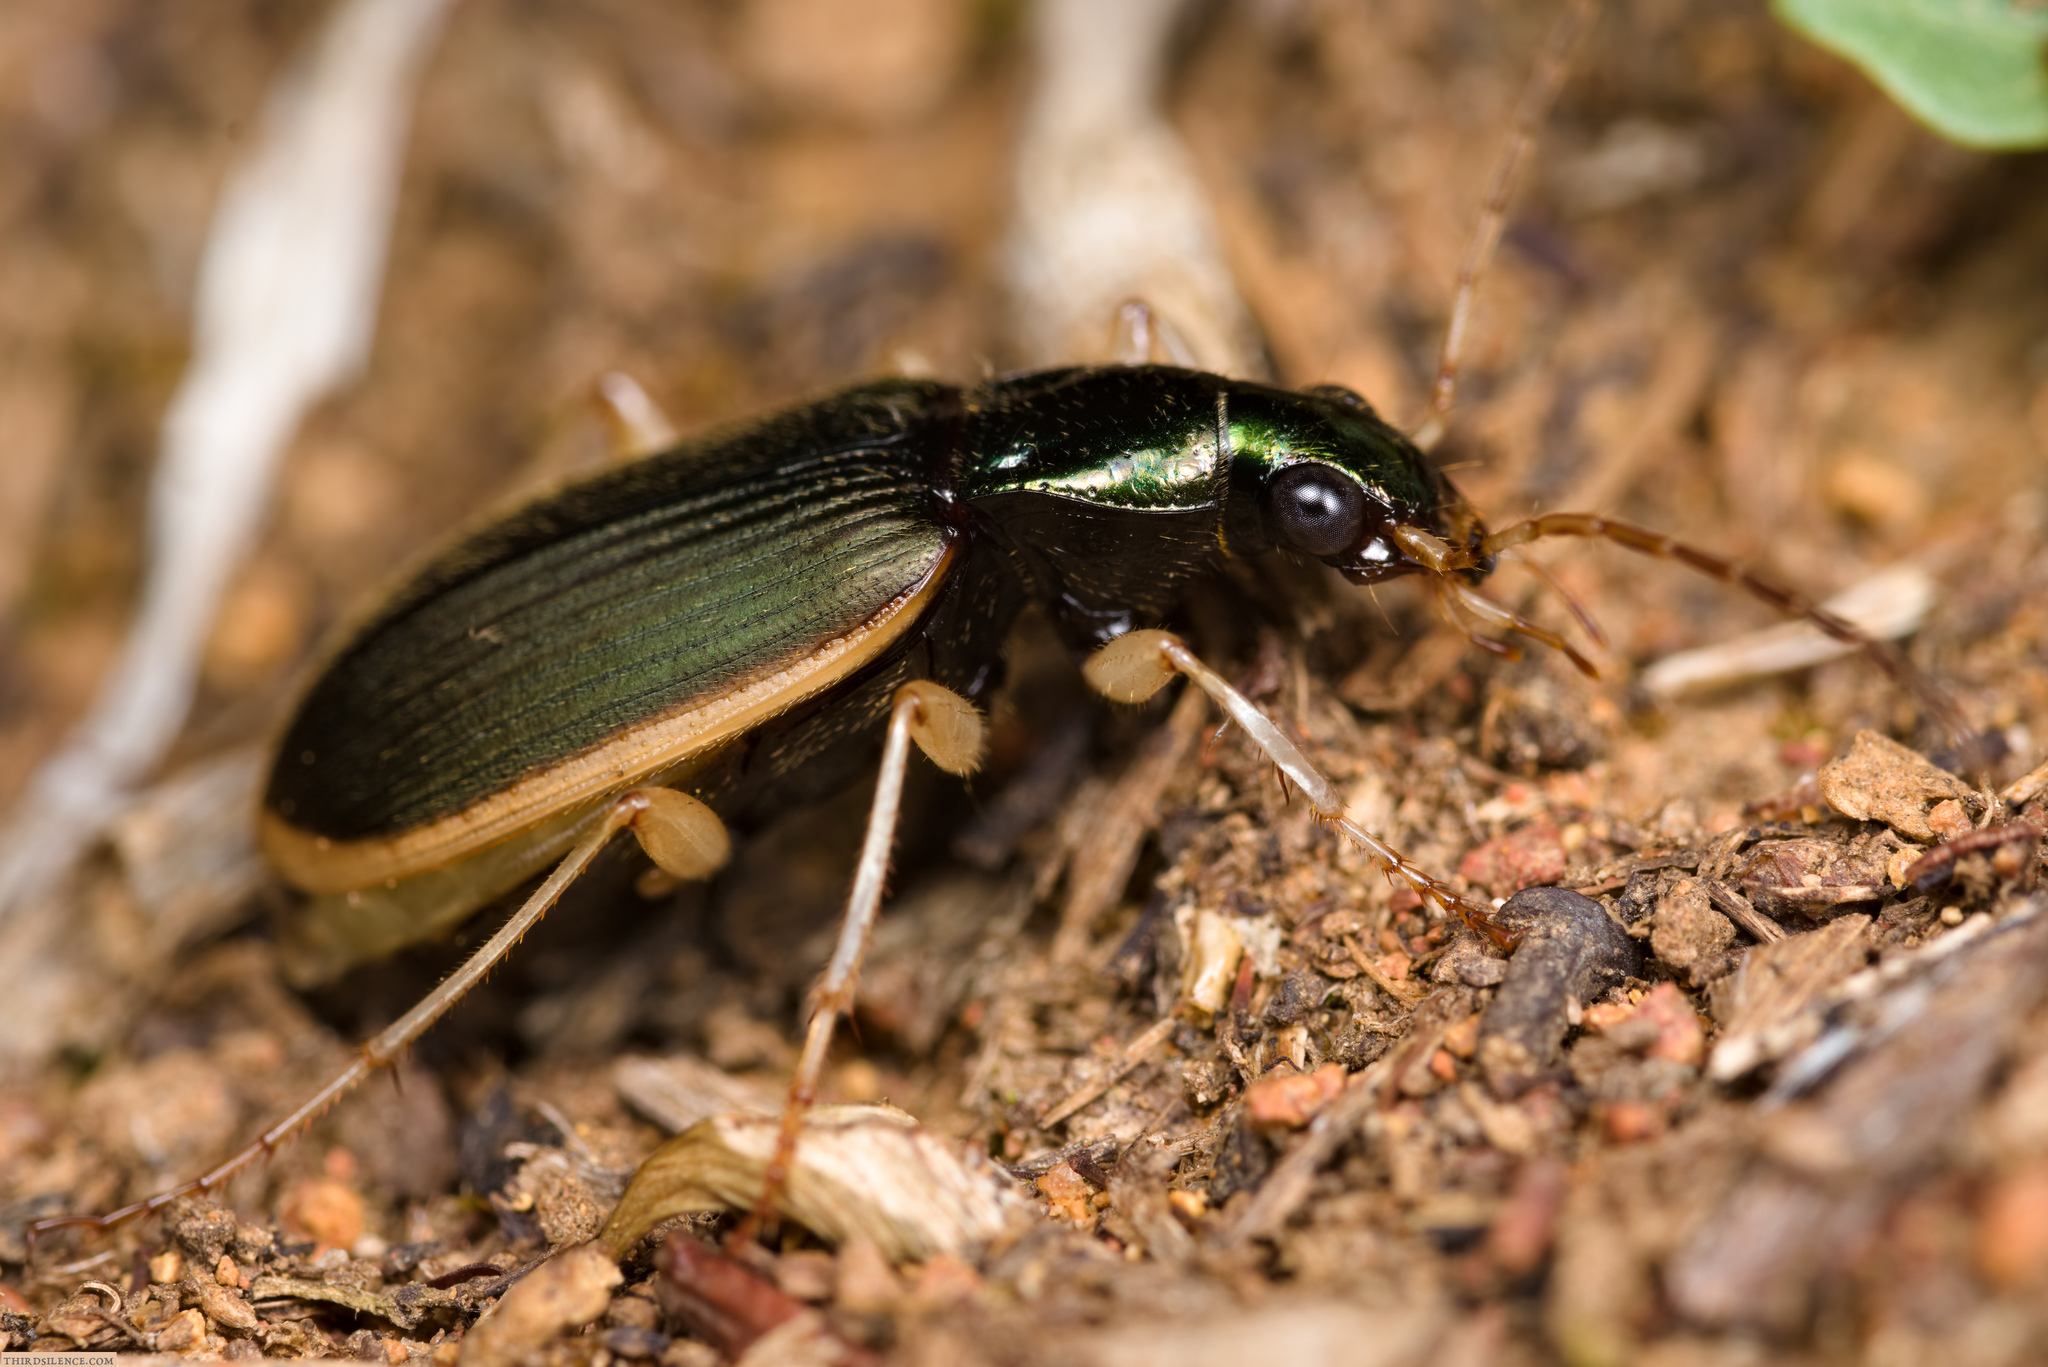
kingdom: Animalia
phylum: Arthropoda
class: Insecta
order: Coleoptera
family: Carabidae
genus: Chlaenius
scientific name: Chlaenius darlingensis
